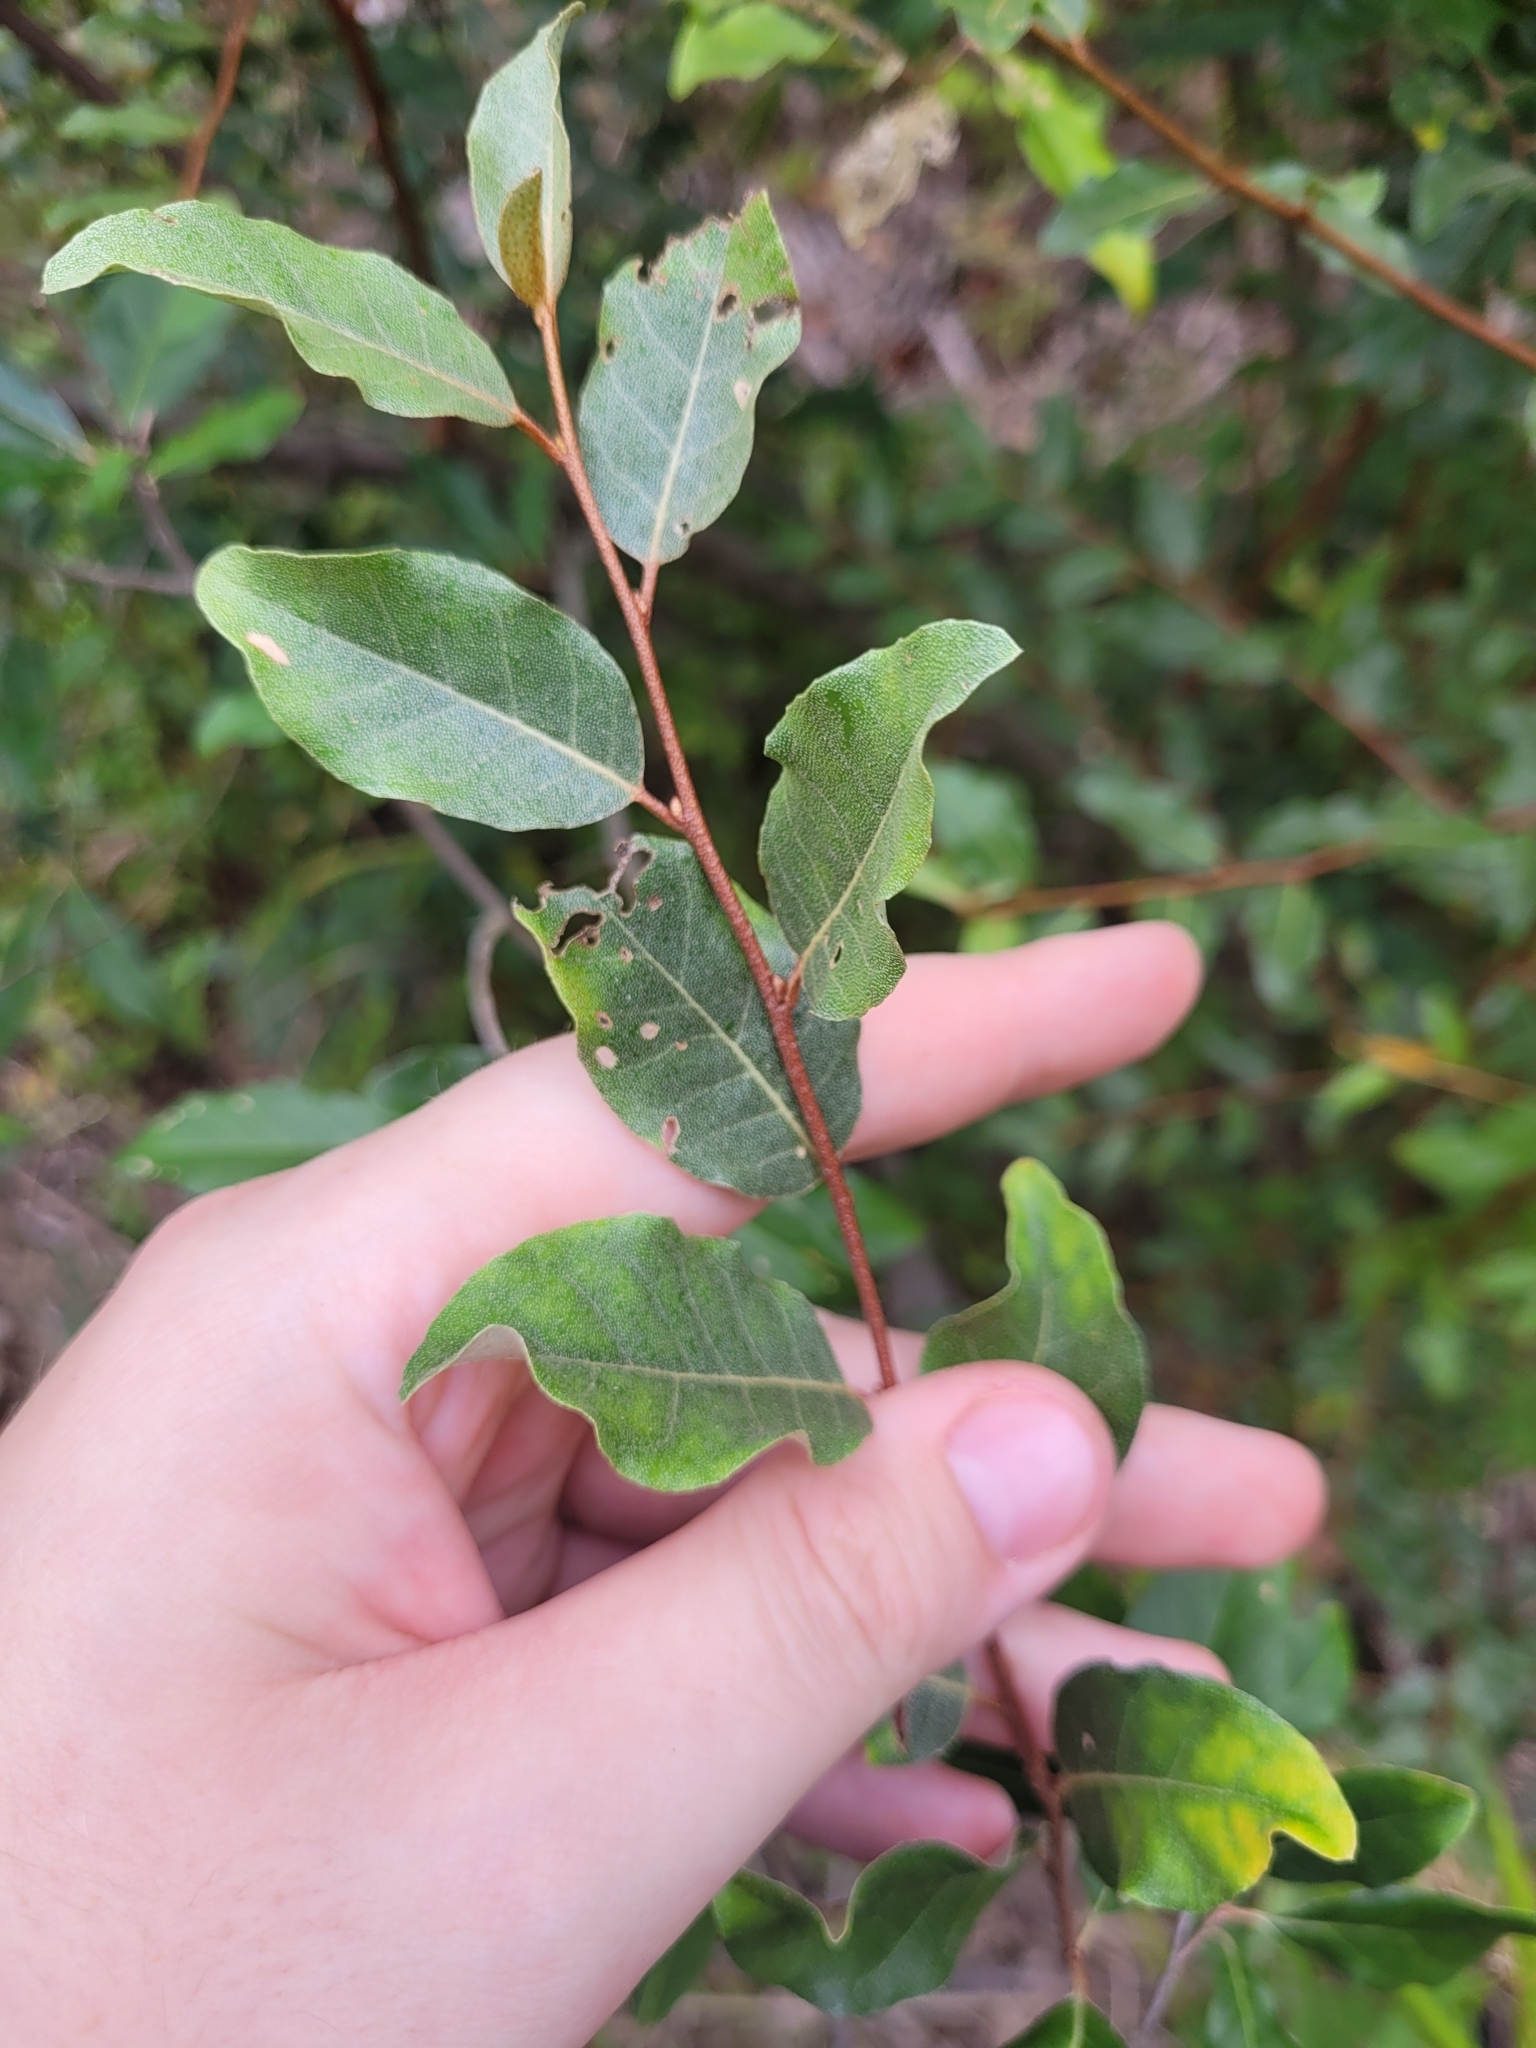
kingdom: Plantae
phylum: Tracheophyta
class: Magnoliopsida
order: Rosales
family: Elaeagnaceae
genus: Elaeagnus
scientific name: Elaeagnus umbellata
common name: Autumn olive
